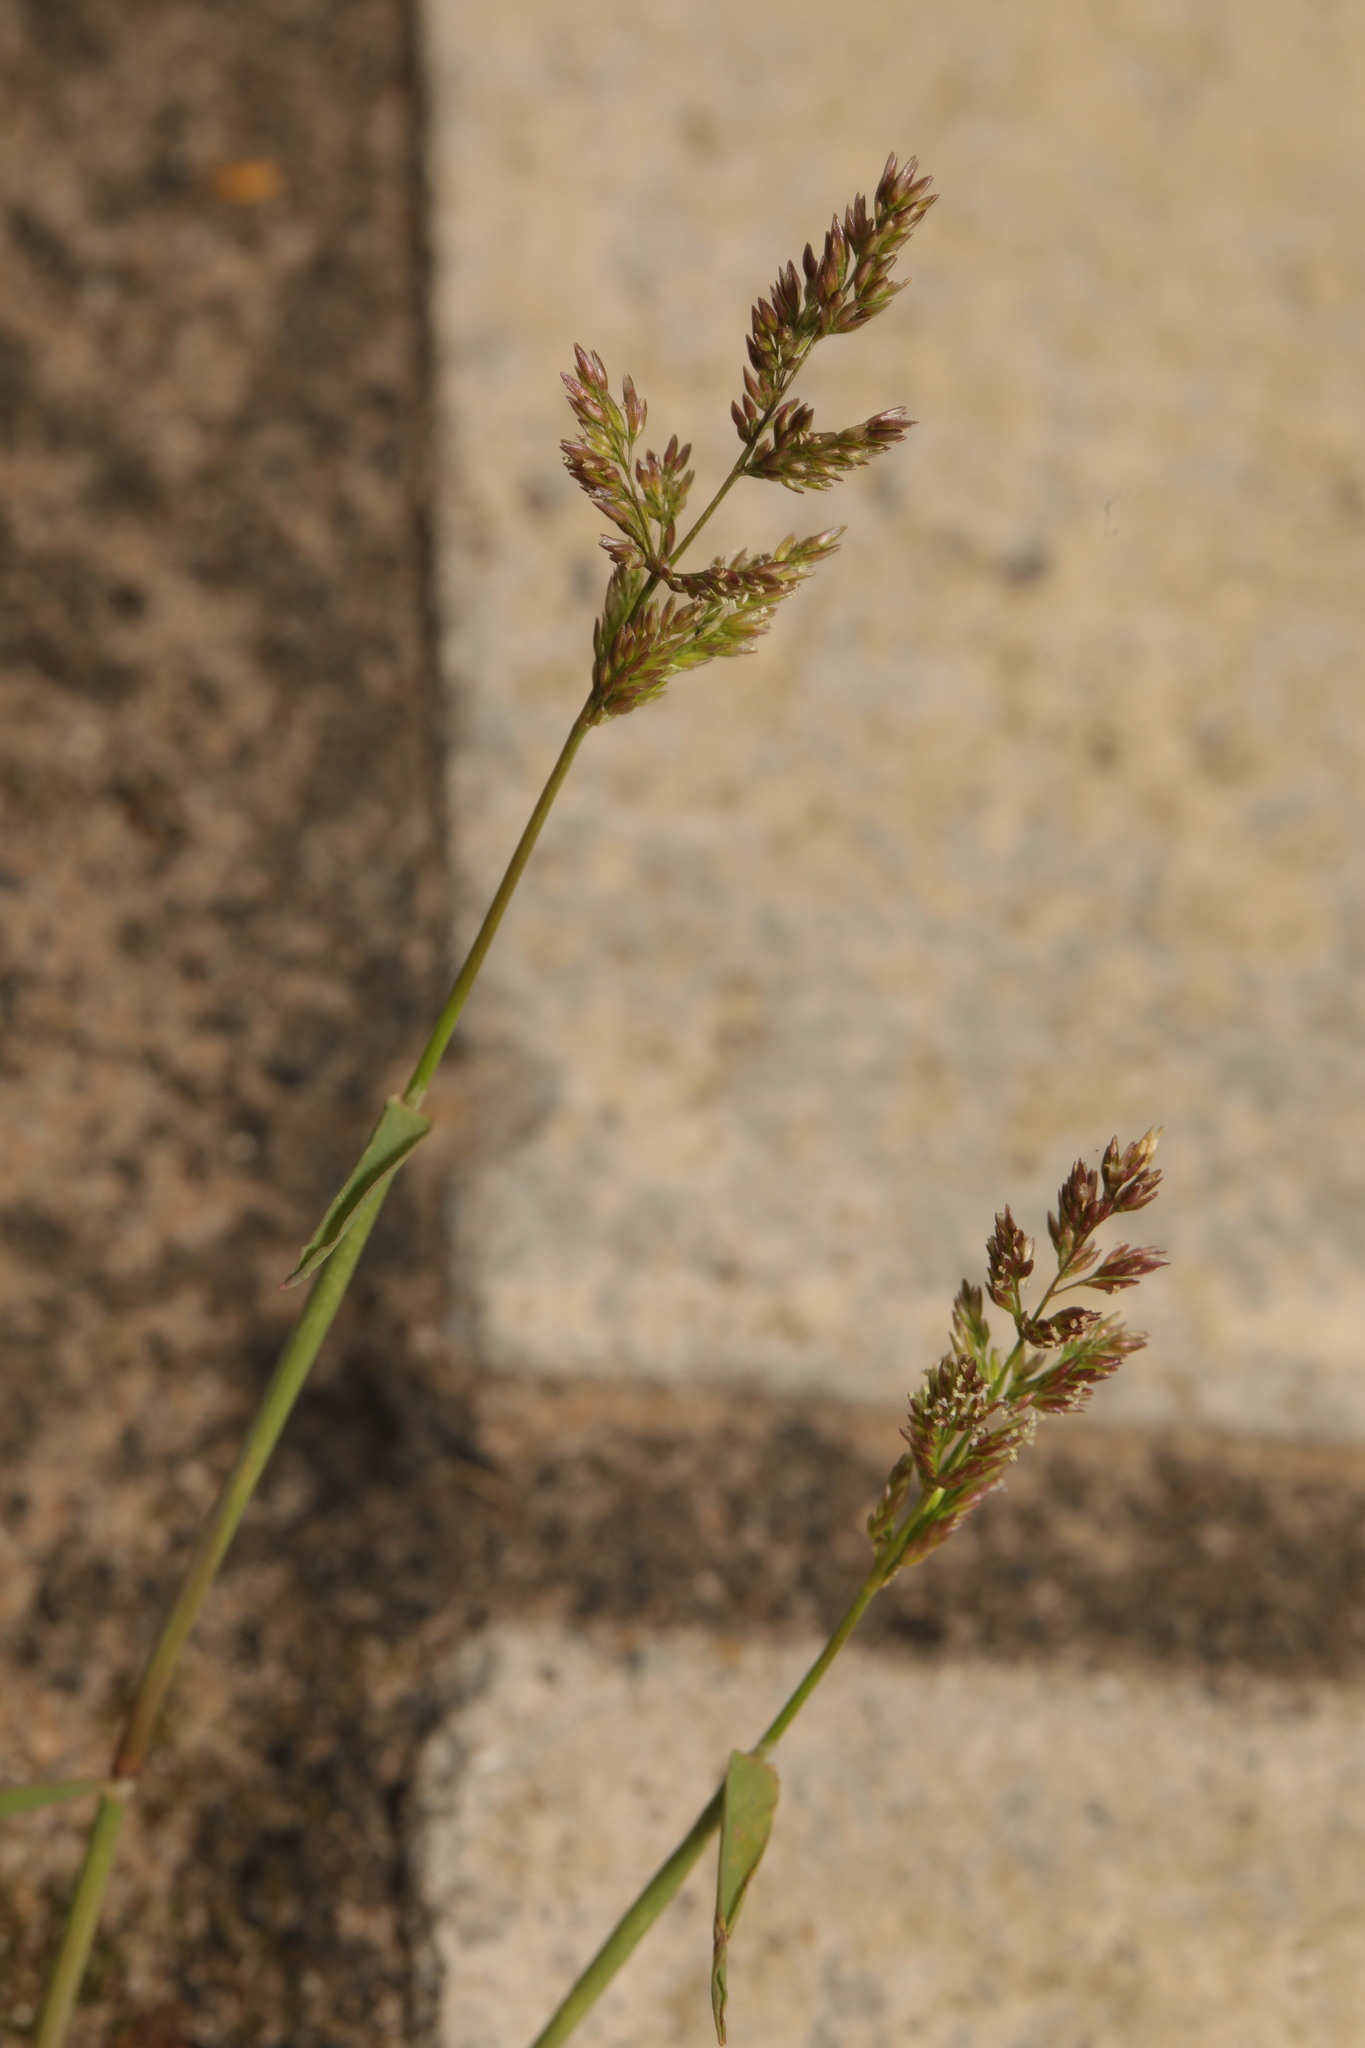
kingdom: Plantae
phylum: Tracheophyta
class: Liliopsida
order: Poales
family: Poaceae
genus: Polypogon
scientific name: Polypogon viridis
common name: Water bent
